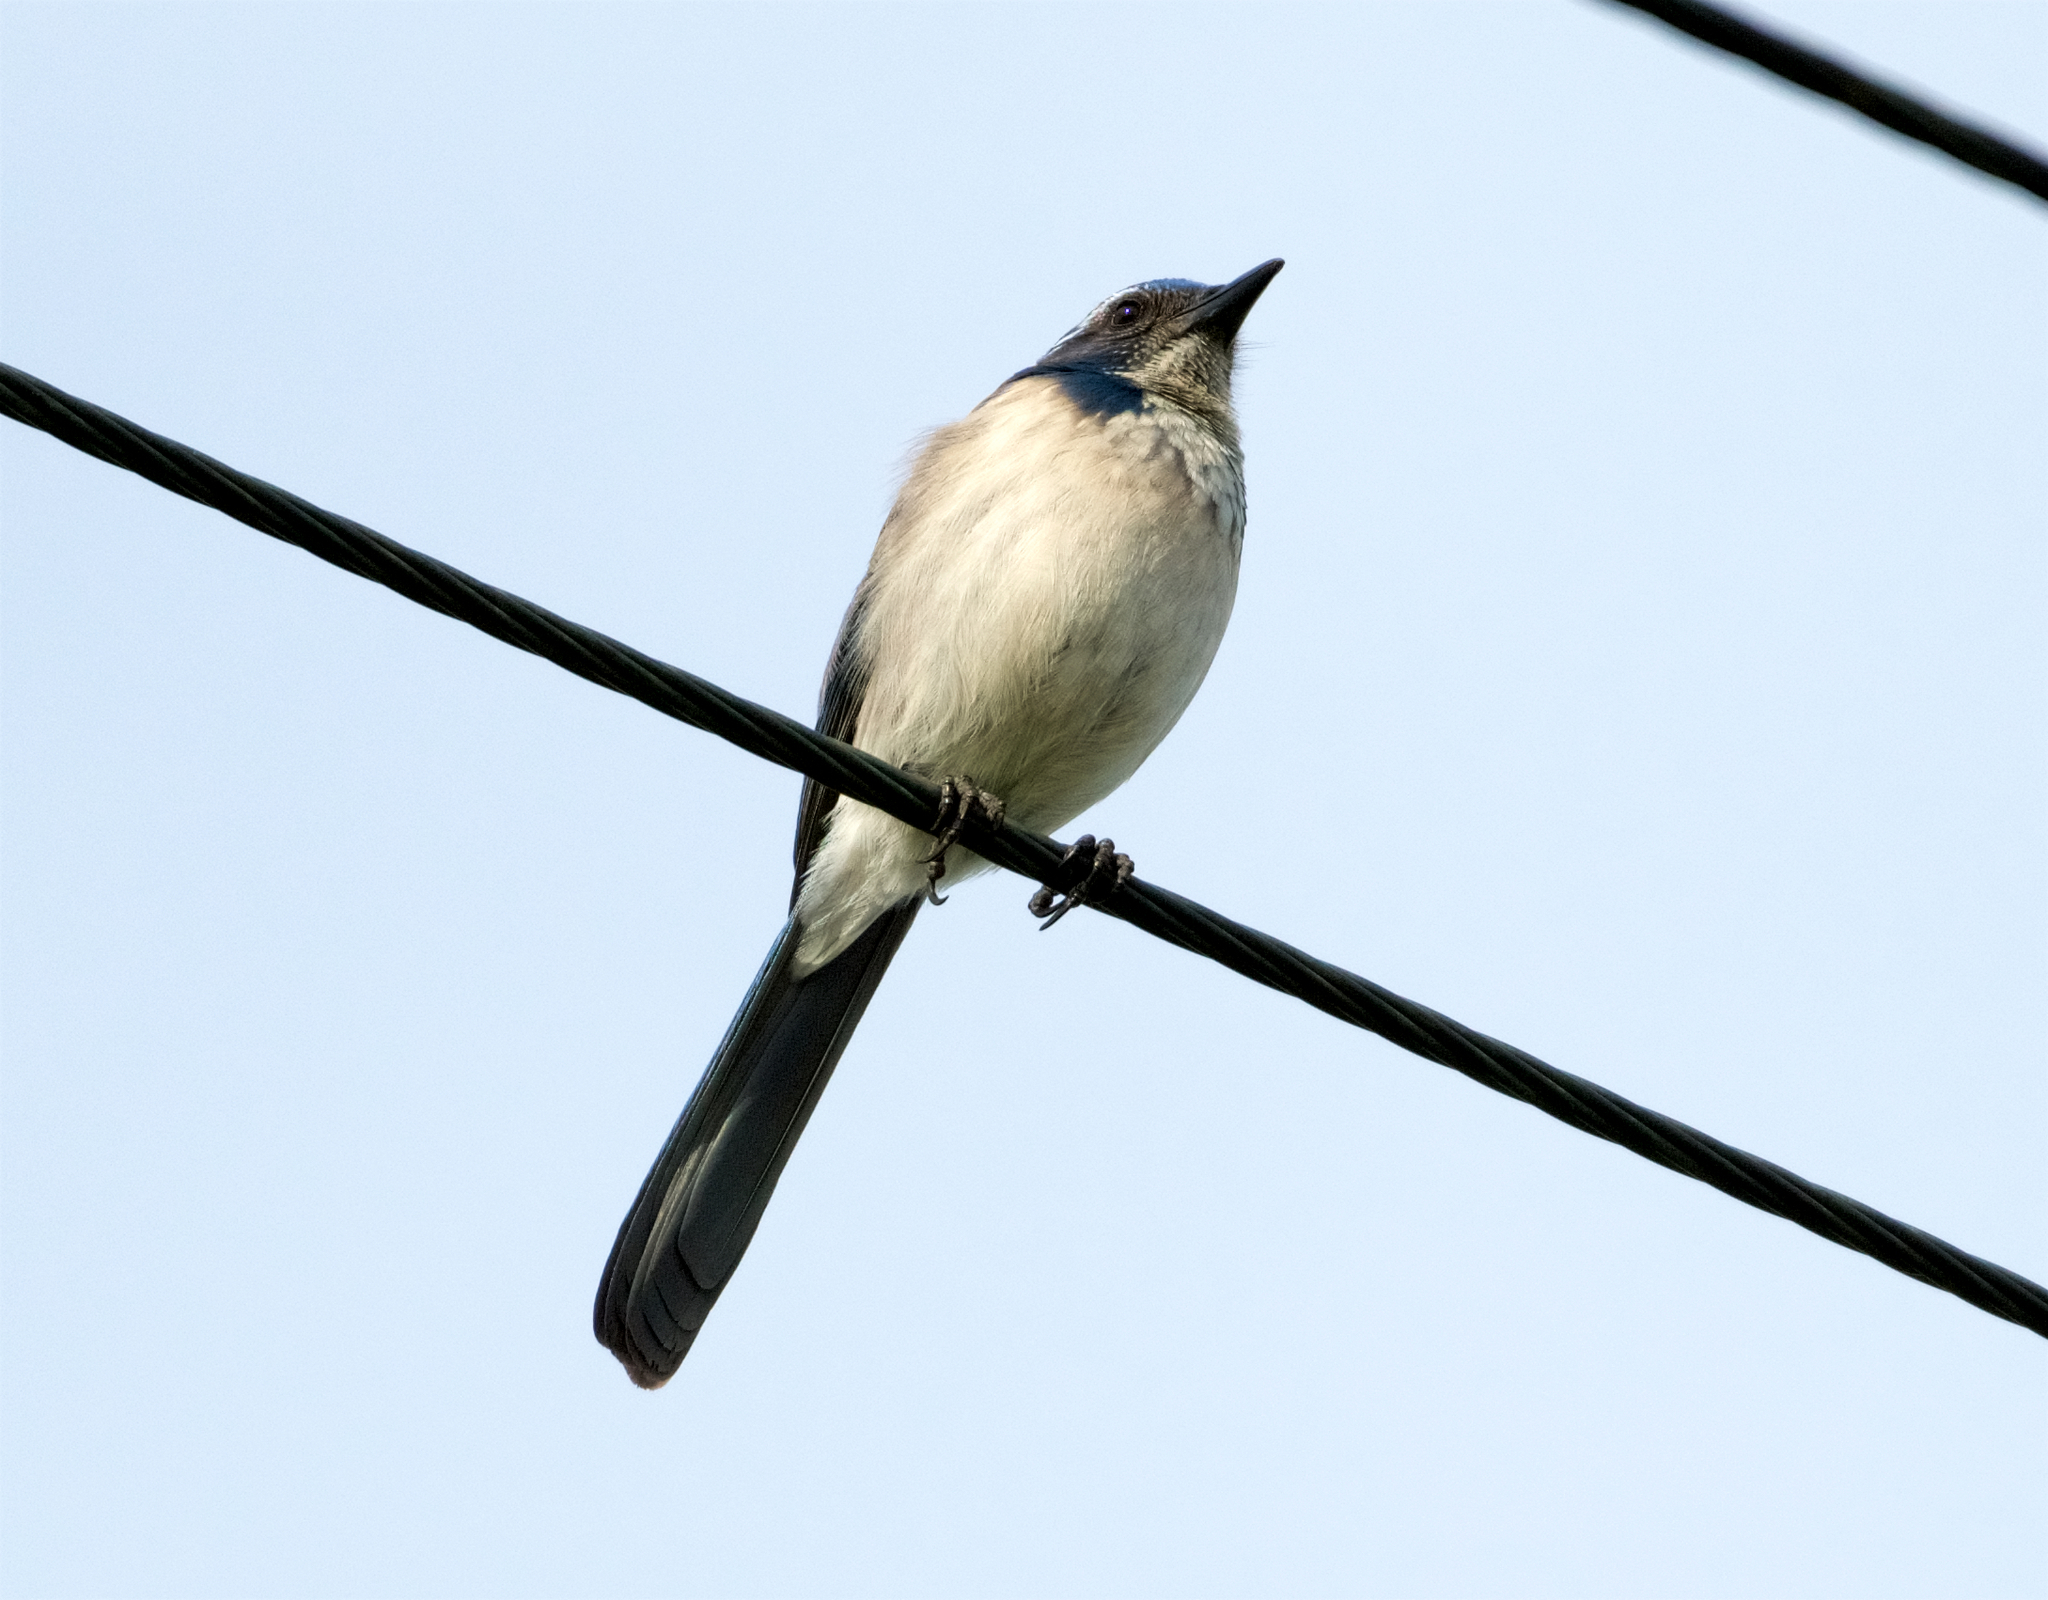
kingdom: Animalia
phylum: Chordata
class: Aves
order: Passeriformes
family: Corvidae
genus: Aphelocoma
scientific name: Aphelocoma californica
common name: California scrub-jay
